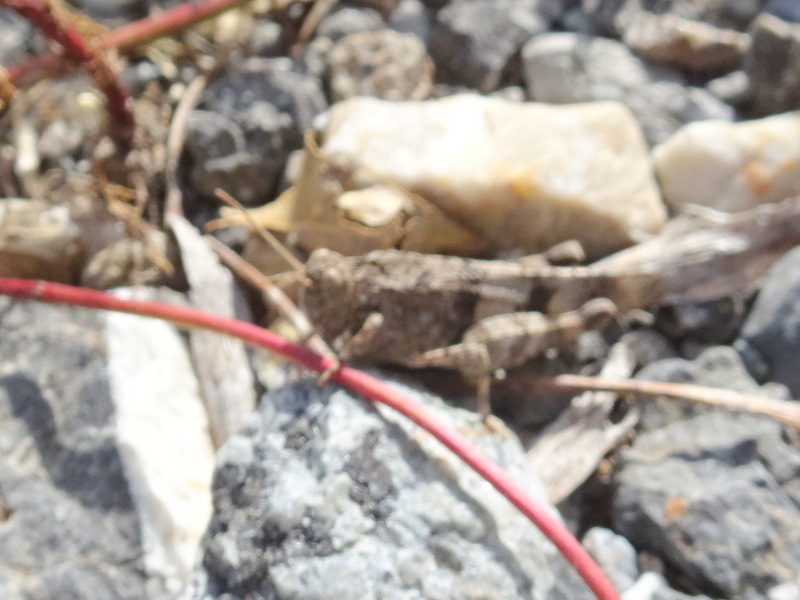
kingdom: Animalia
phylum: Arthropoda
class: Insecta
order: Orthoptera
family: Acrididae
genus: Oedipoda
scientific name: Oedipoda caerulescens
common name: Blue-winged grasshopper
